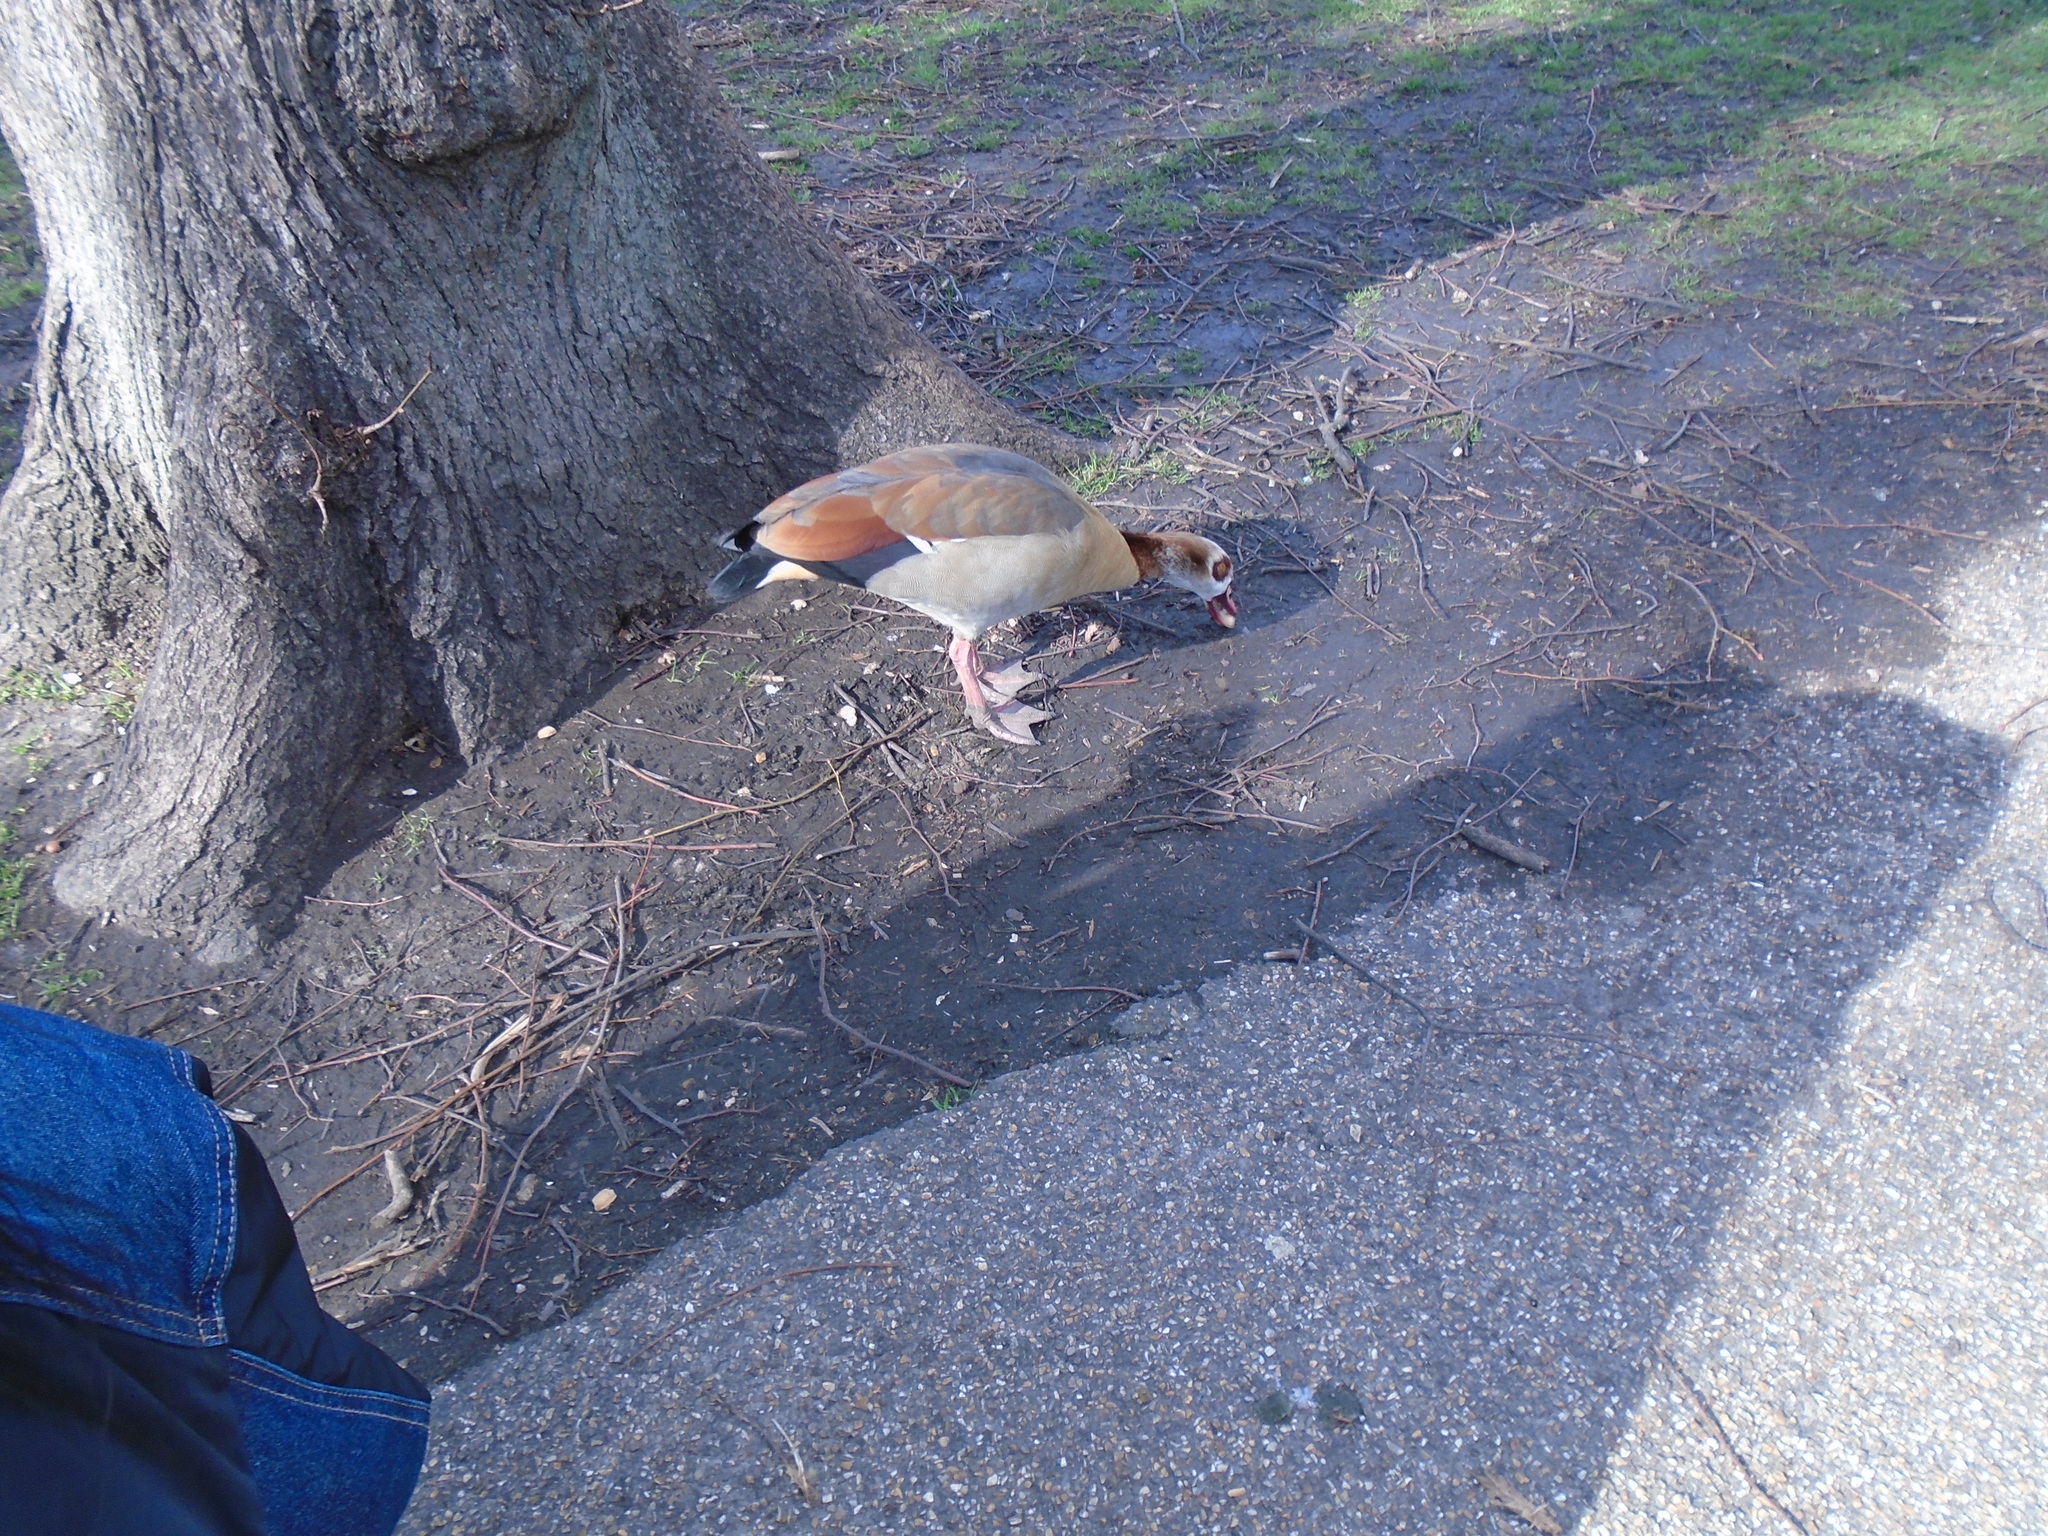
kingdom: Animalia
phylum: Chordata
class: Aves
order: Anseriformes
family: Anatidae
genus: Alopochen
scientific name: Alopochen aegyptiaca
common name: Egyptian goose
